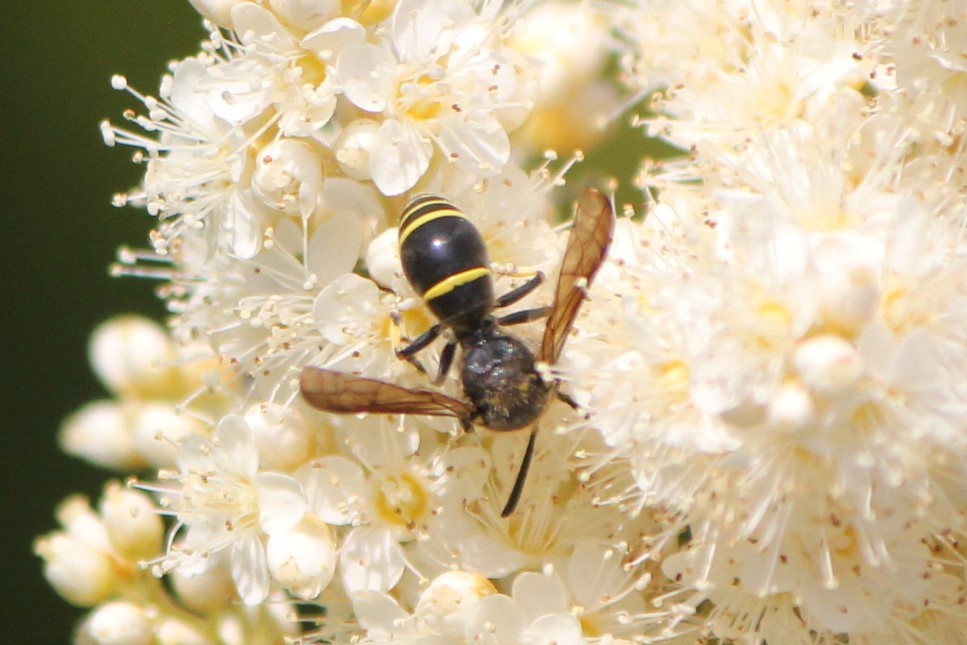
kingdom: Animalia
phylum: Arthropoda
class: Insecta
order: Hymenoptera
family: Vespidae
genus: Ancistrocerus
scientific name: Ancistrocerus
